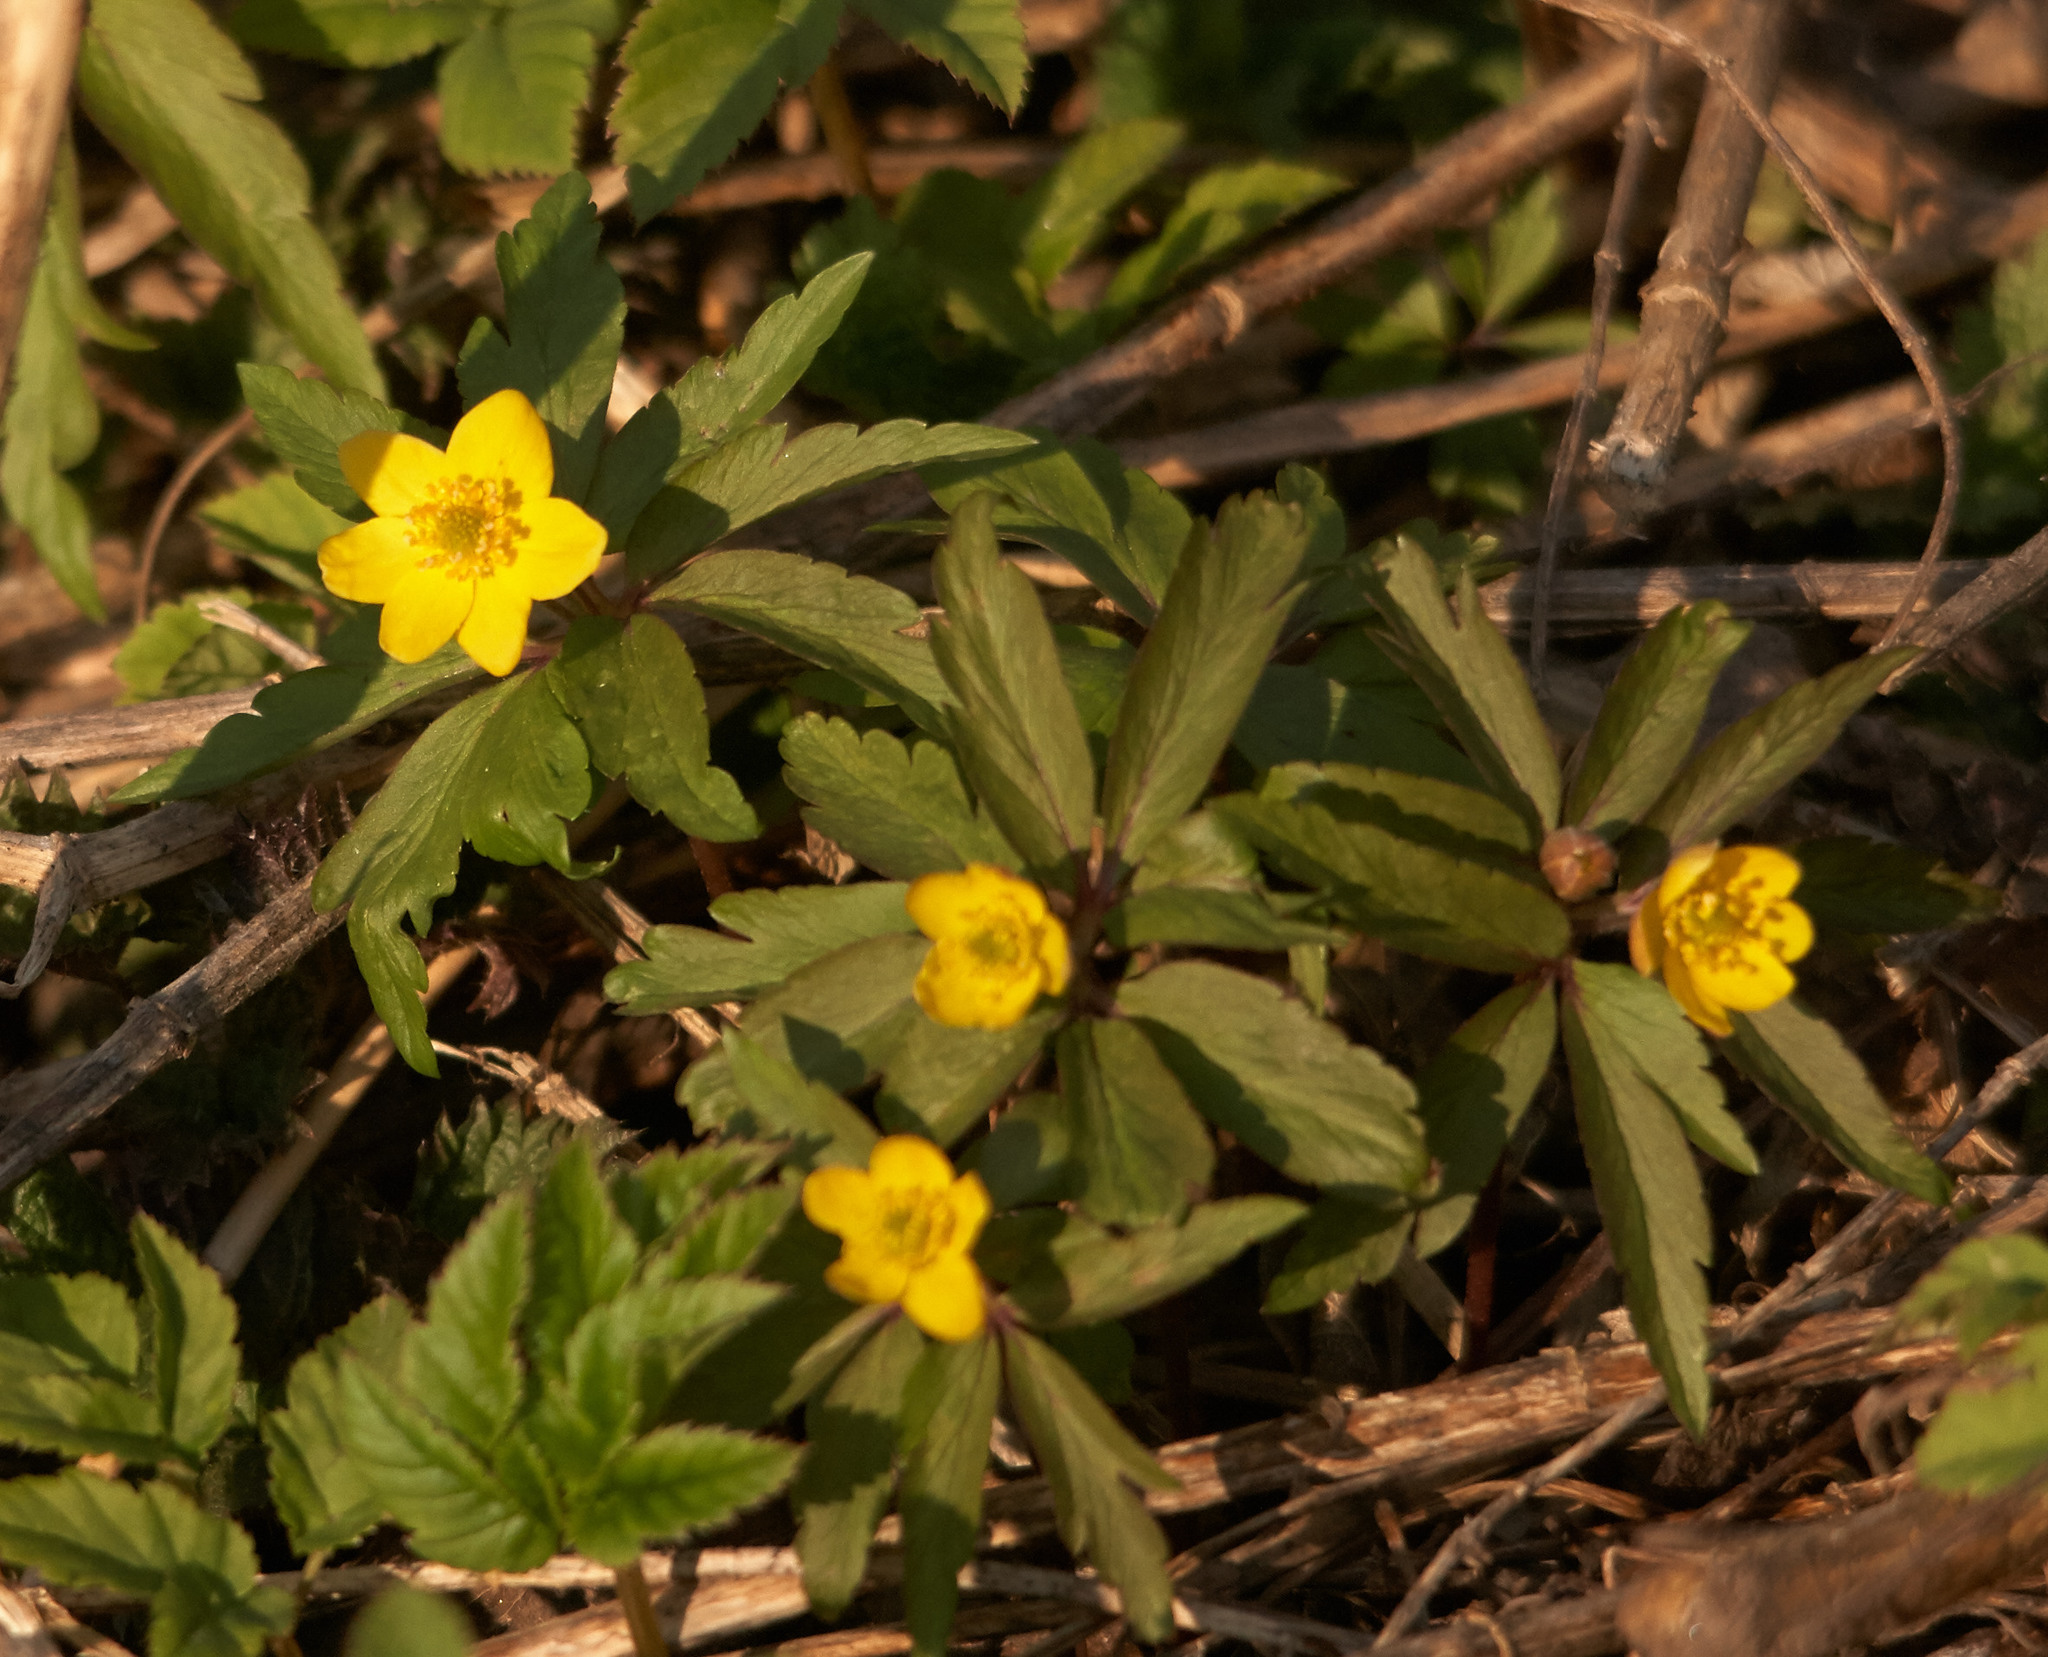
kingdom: Plantae
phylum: Tracheophyta
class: Magnoliopsida
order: Ranunculales
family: Ranunculaceae
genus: Anemone
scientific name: Anemone ranunculoides
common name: Yellow anemone
